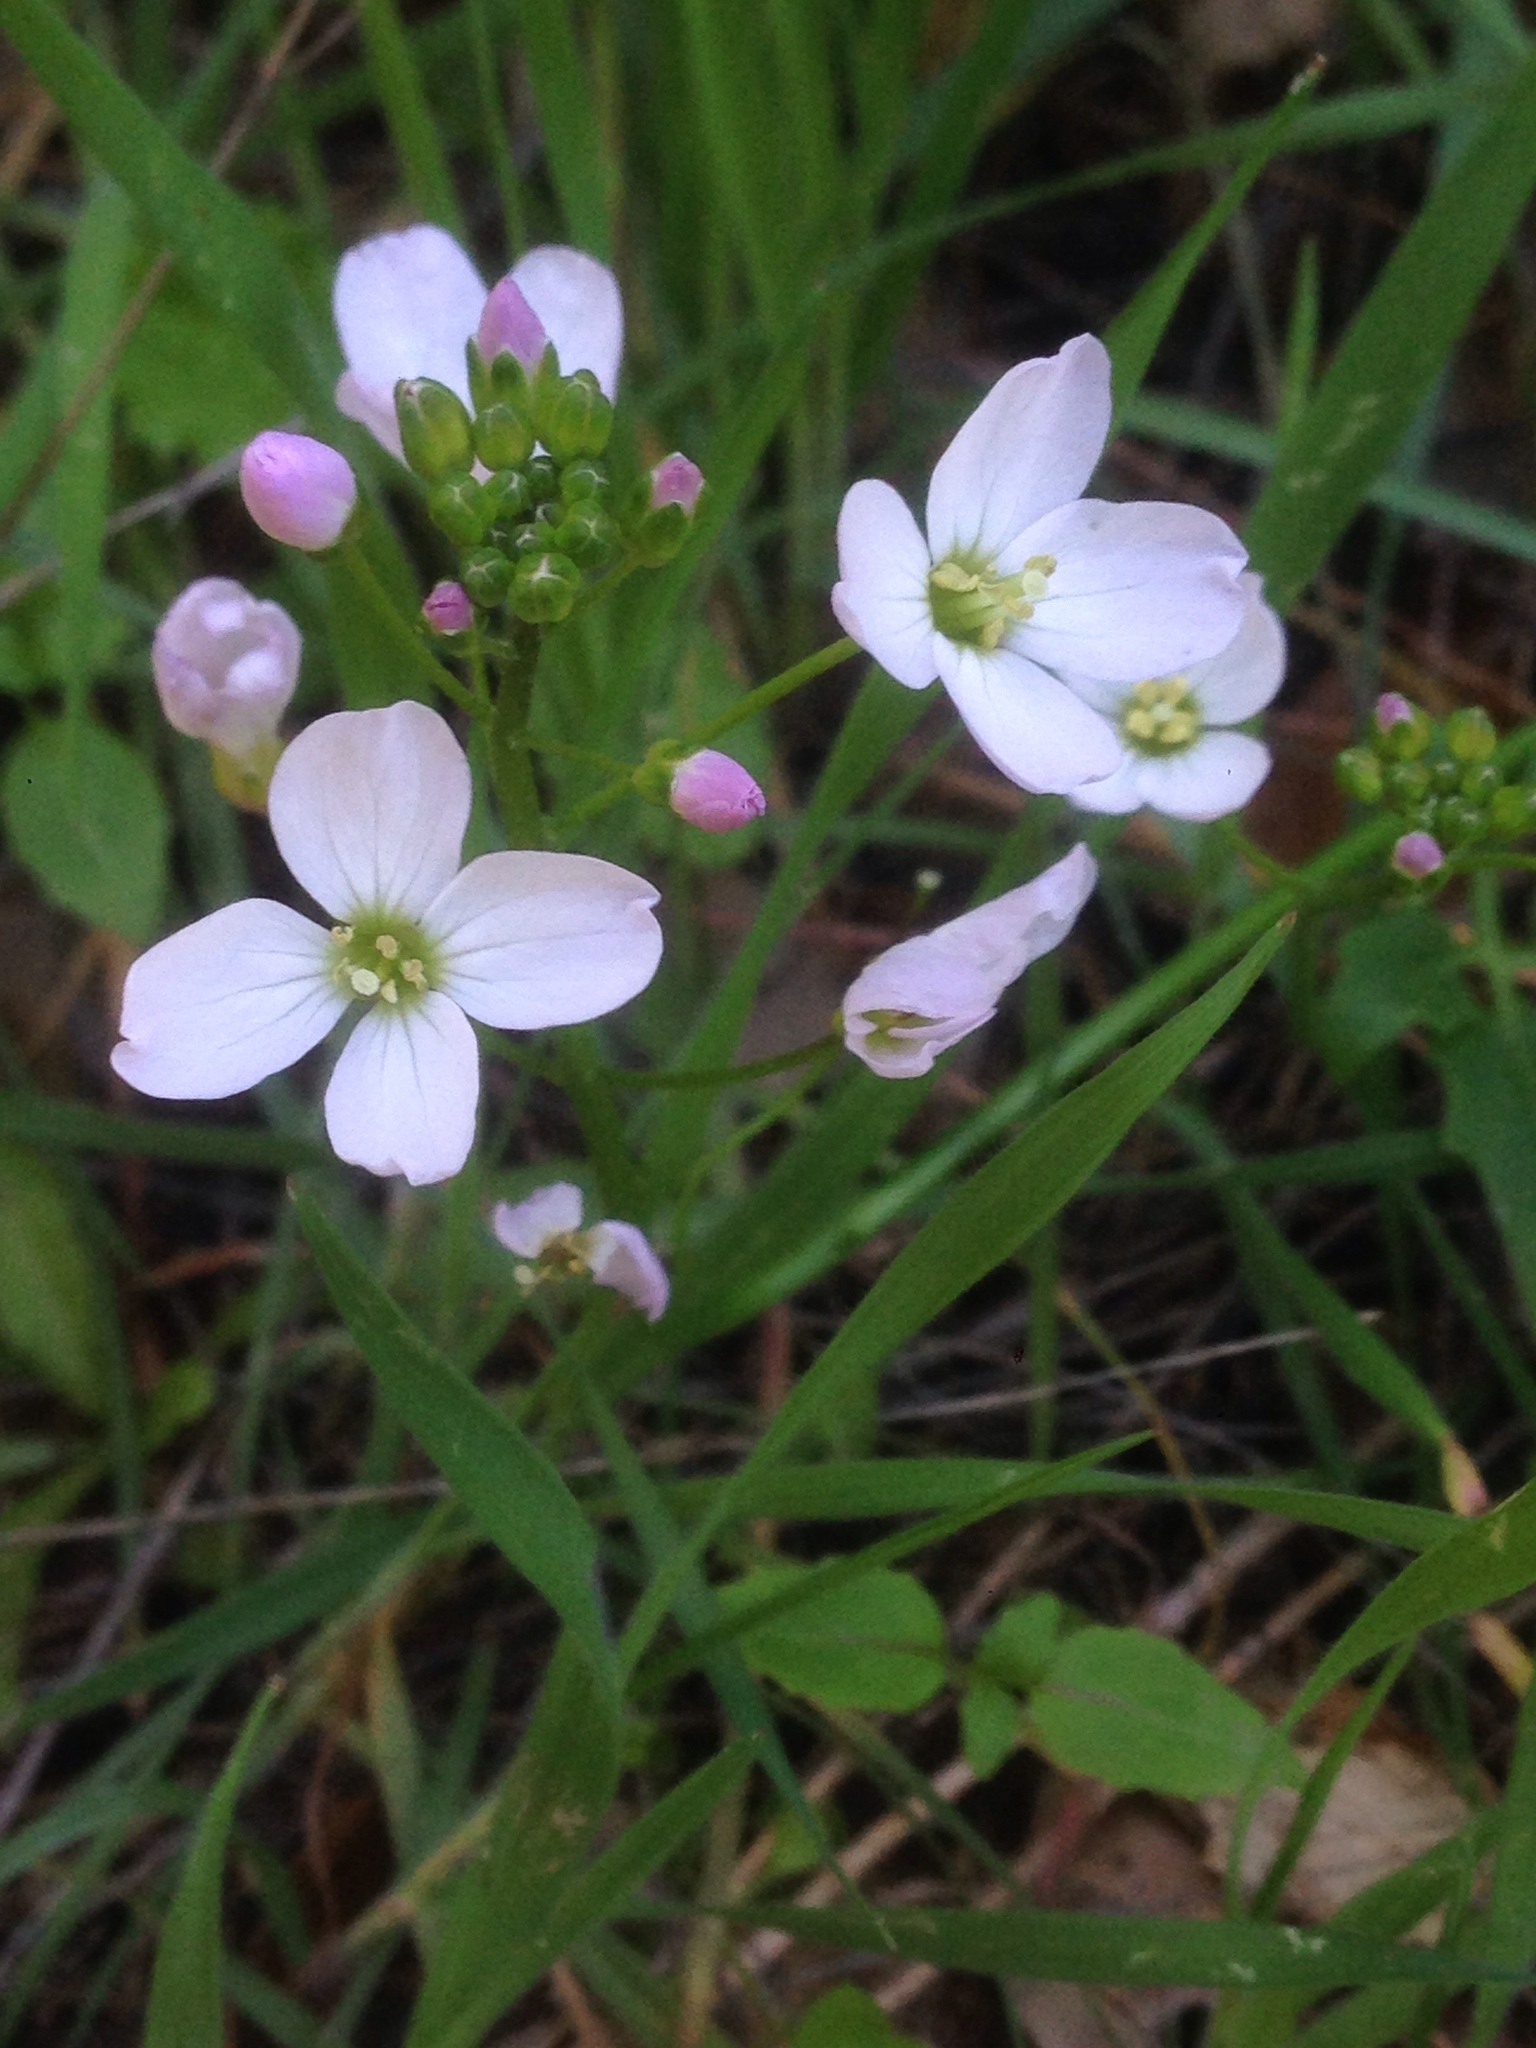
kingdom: Plantae
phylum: Tracheophyta
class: Magnoliopsida
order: Brassicales
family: Brassicaceae
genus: Cardamine
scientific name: Cardamine californica
